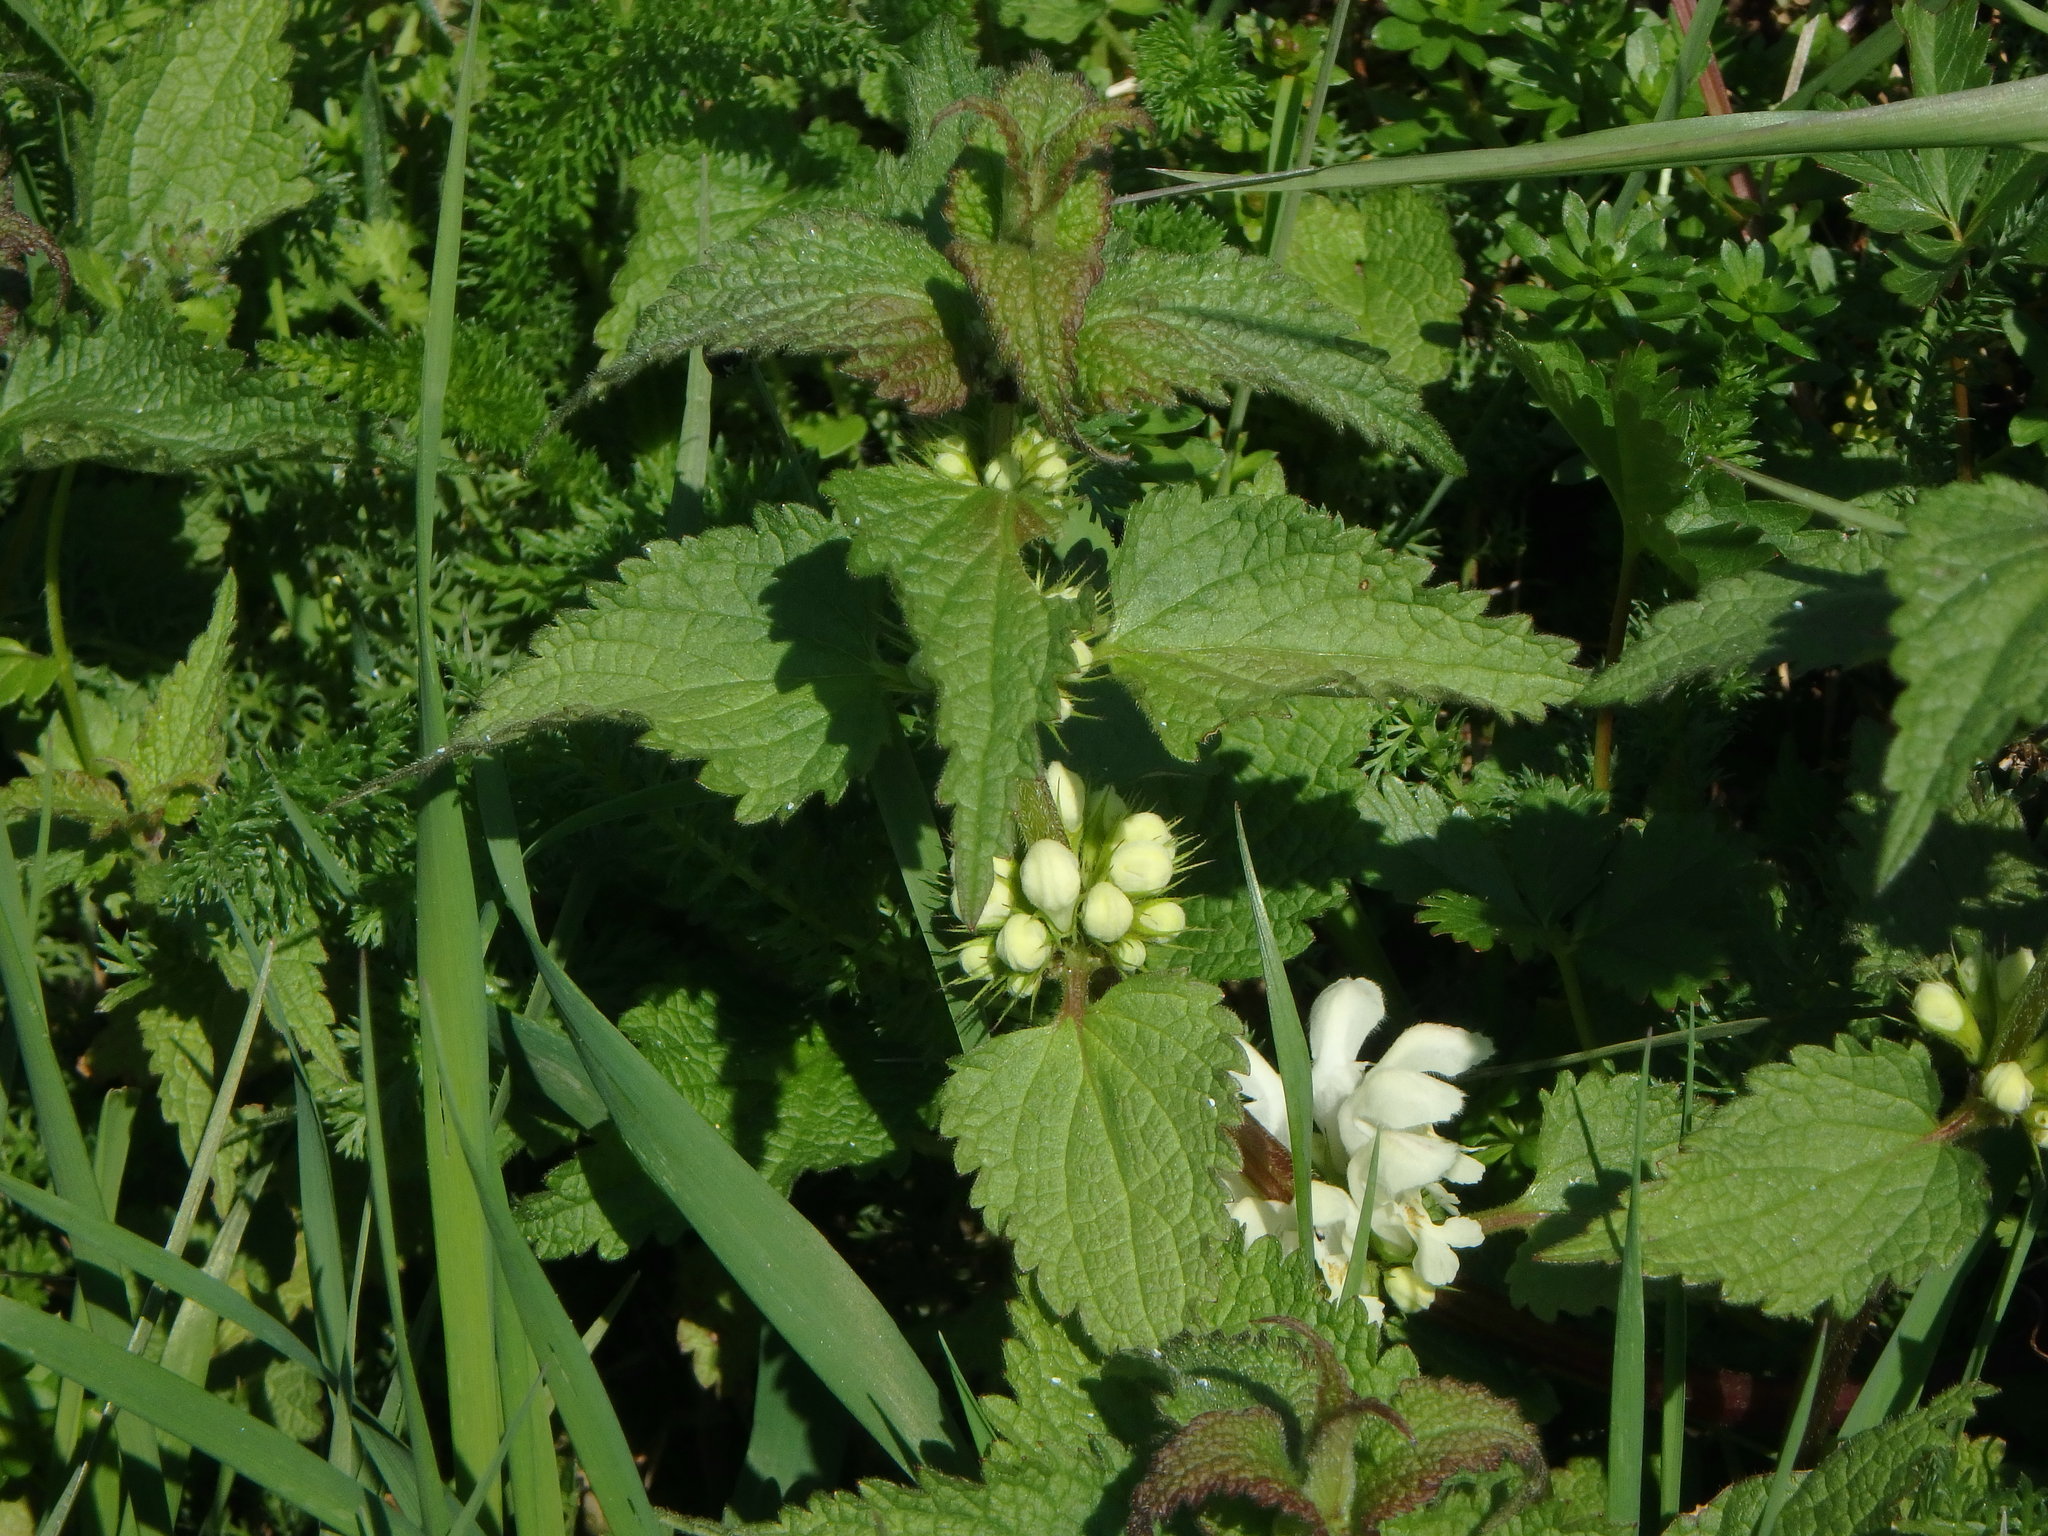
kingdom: Plantae
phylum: Tracheophyta
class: Magnoliopsida
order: Lamiales
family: Lamiaceae
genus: Lamium
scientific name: Lamium album
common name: White dead-nettle
